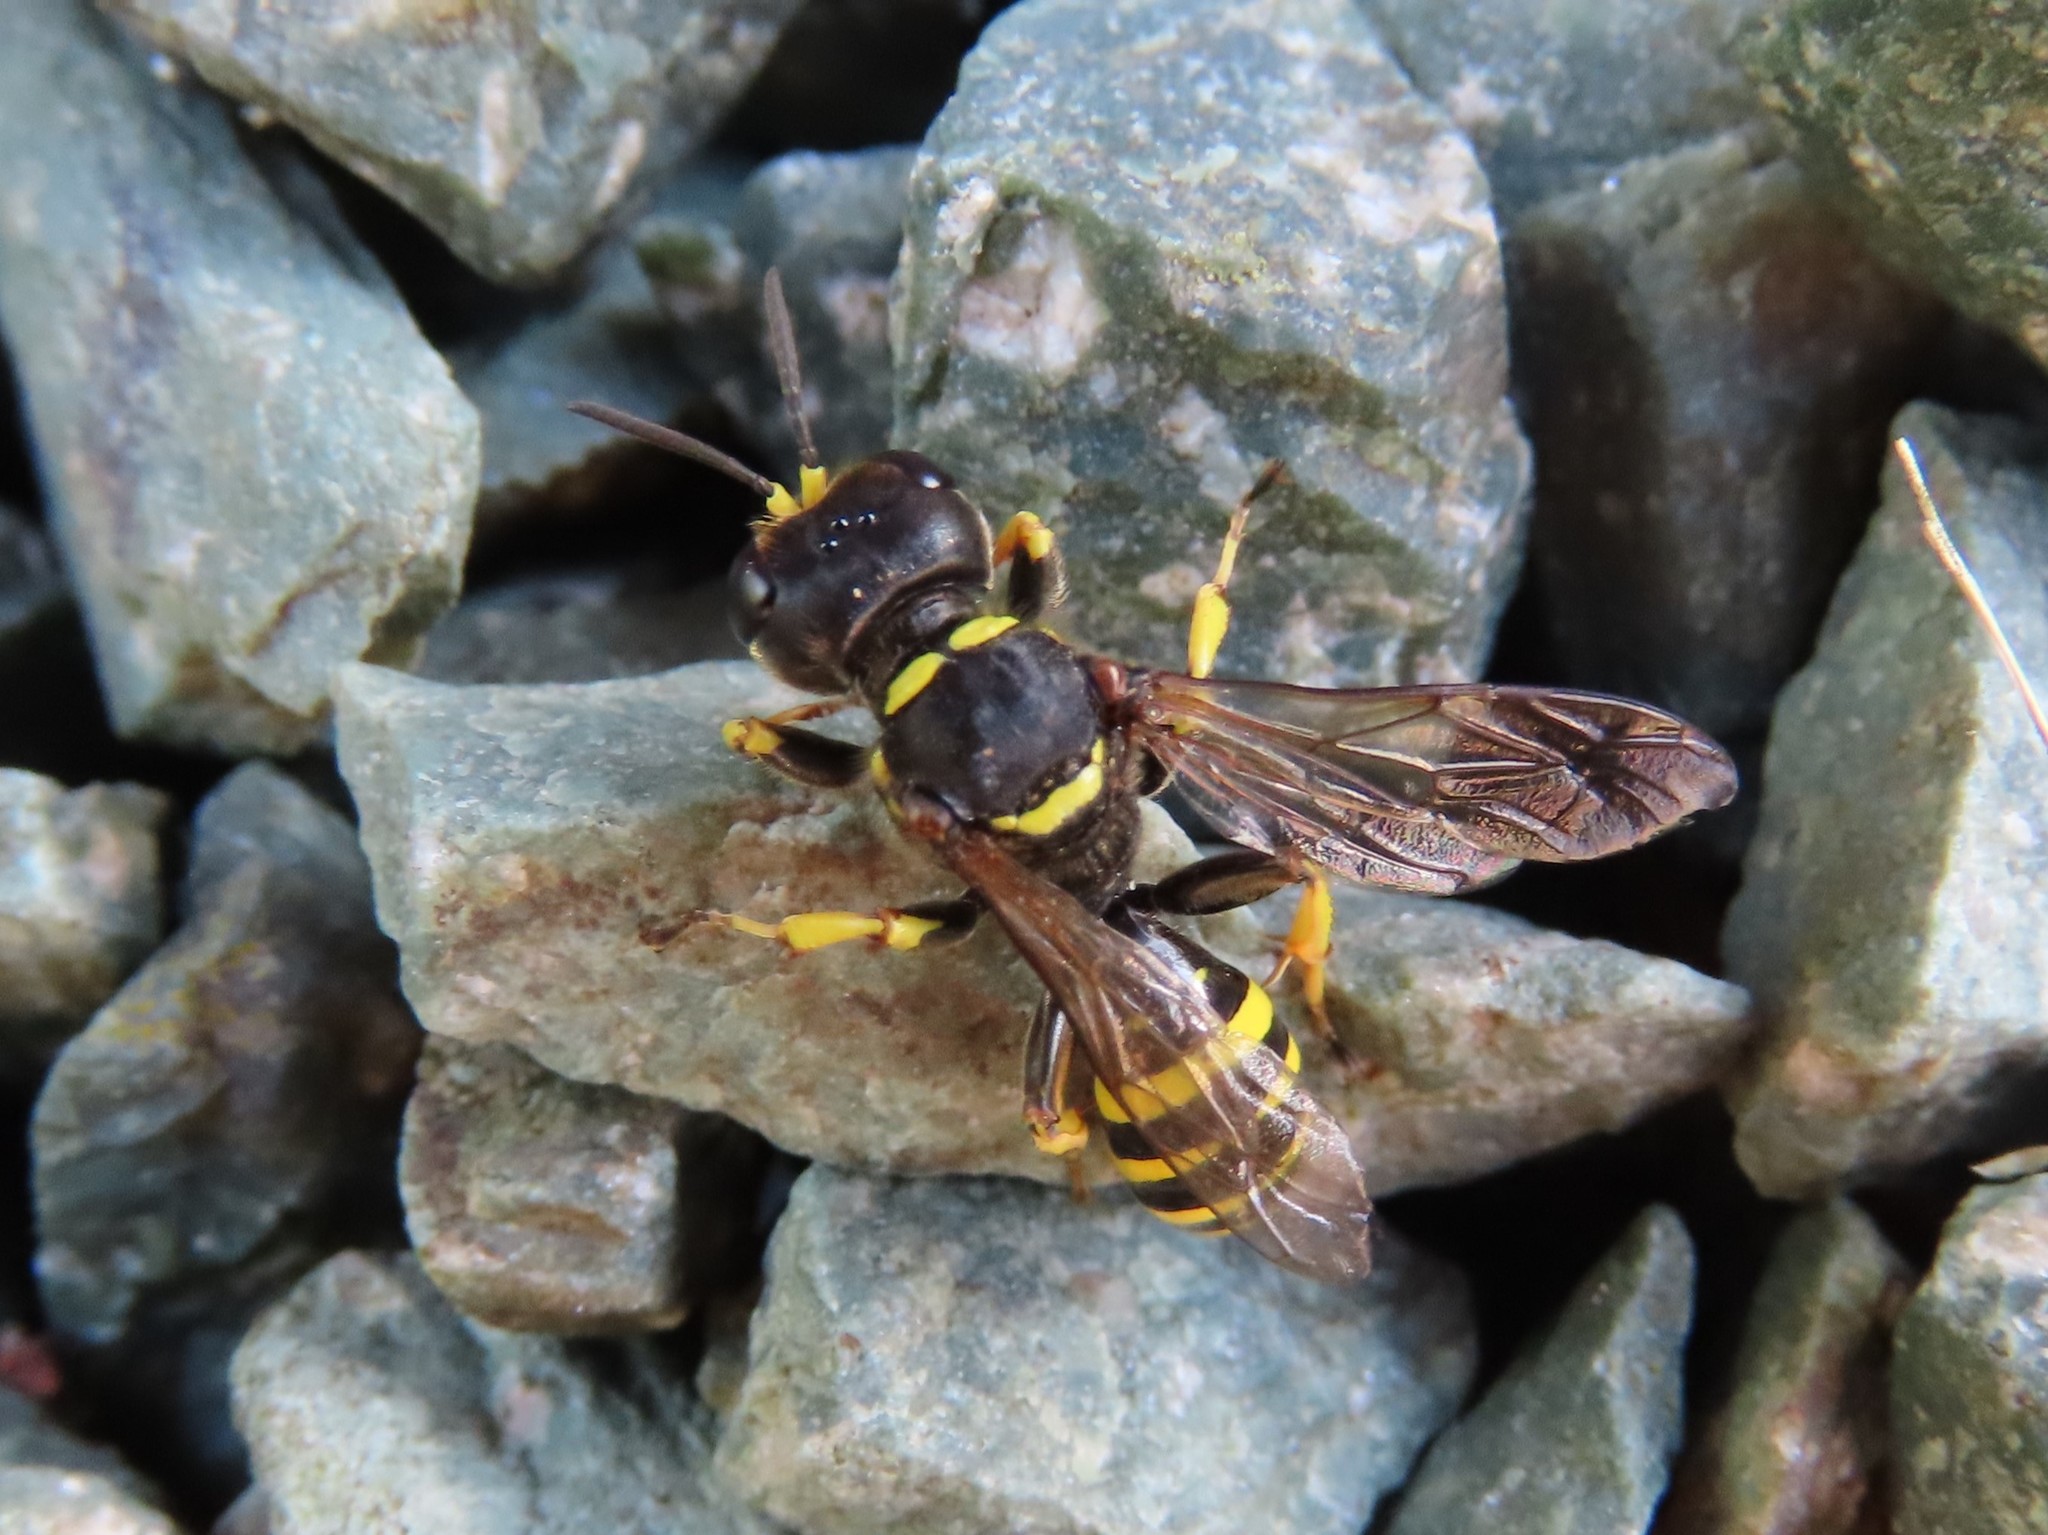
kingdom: Animalia
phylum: Arthropoda
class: Insecta
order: Hymenoptera
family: Crabronidae
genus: Ectemnius
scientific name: Ectemnius cephalotes
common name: Sphecid wasp
